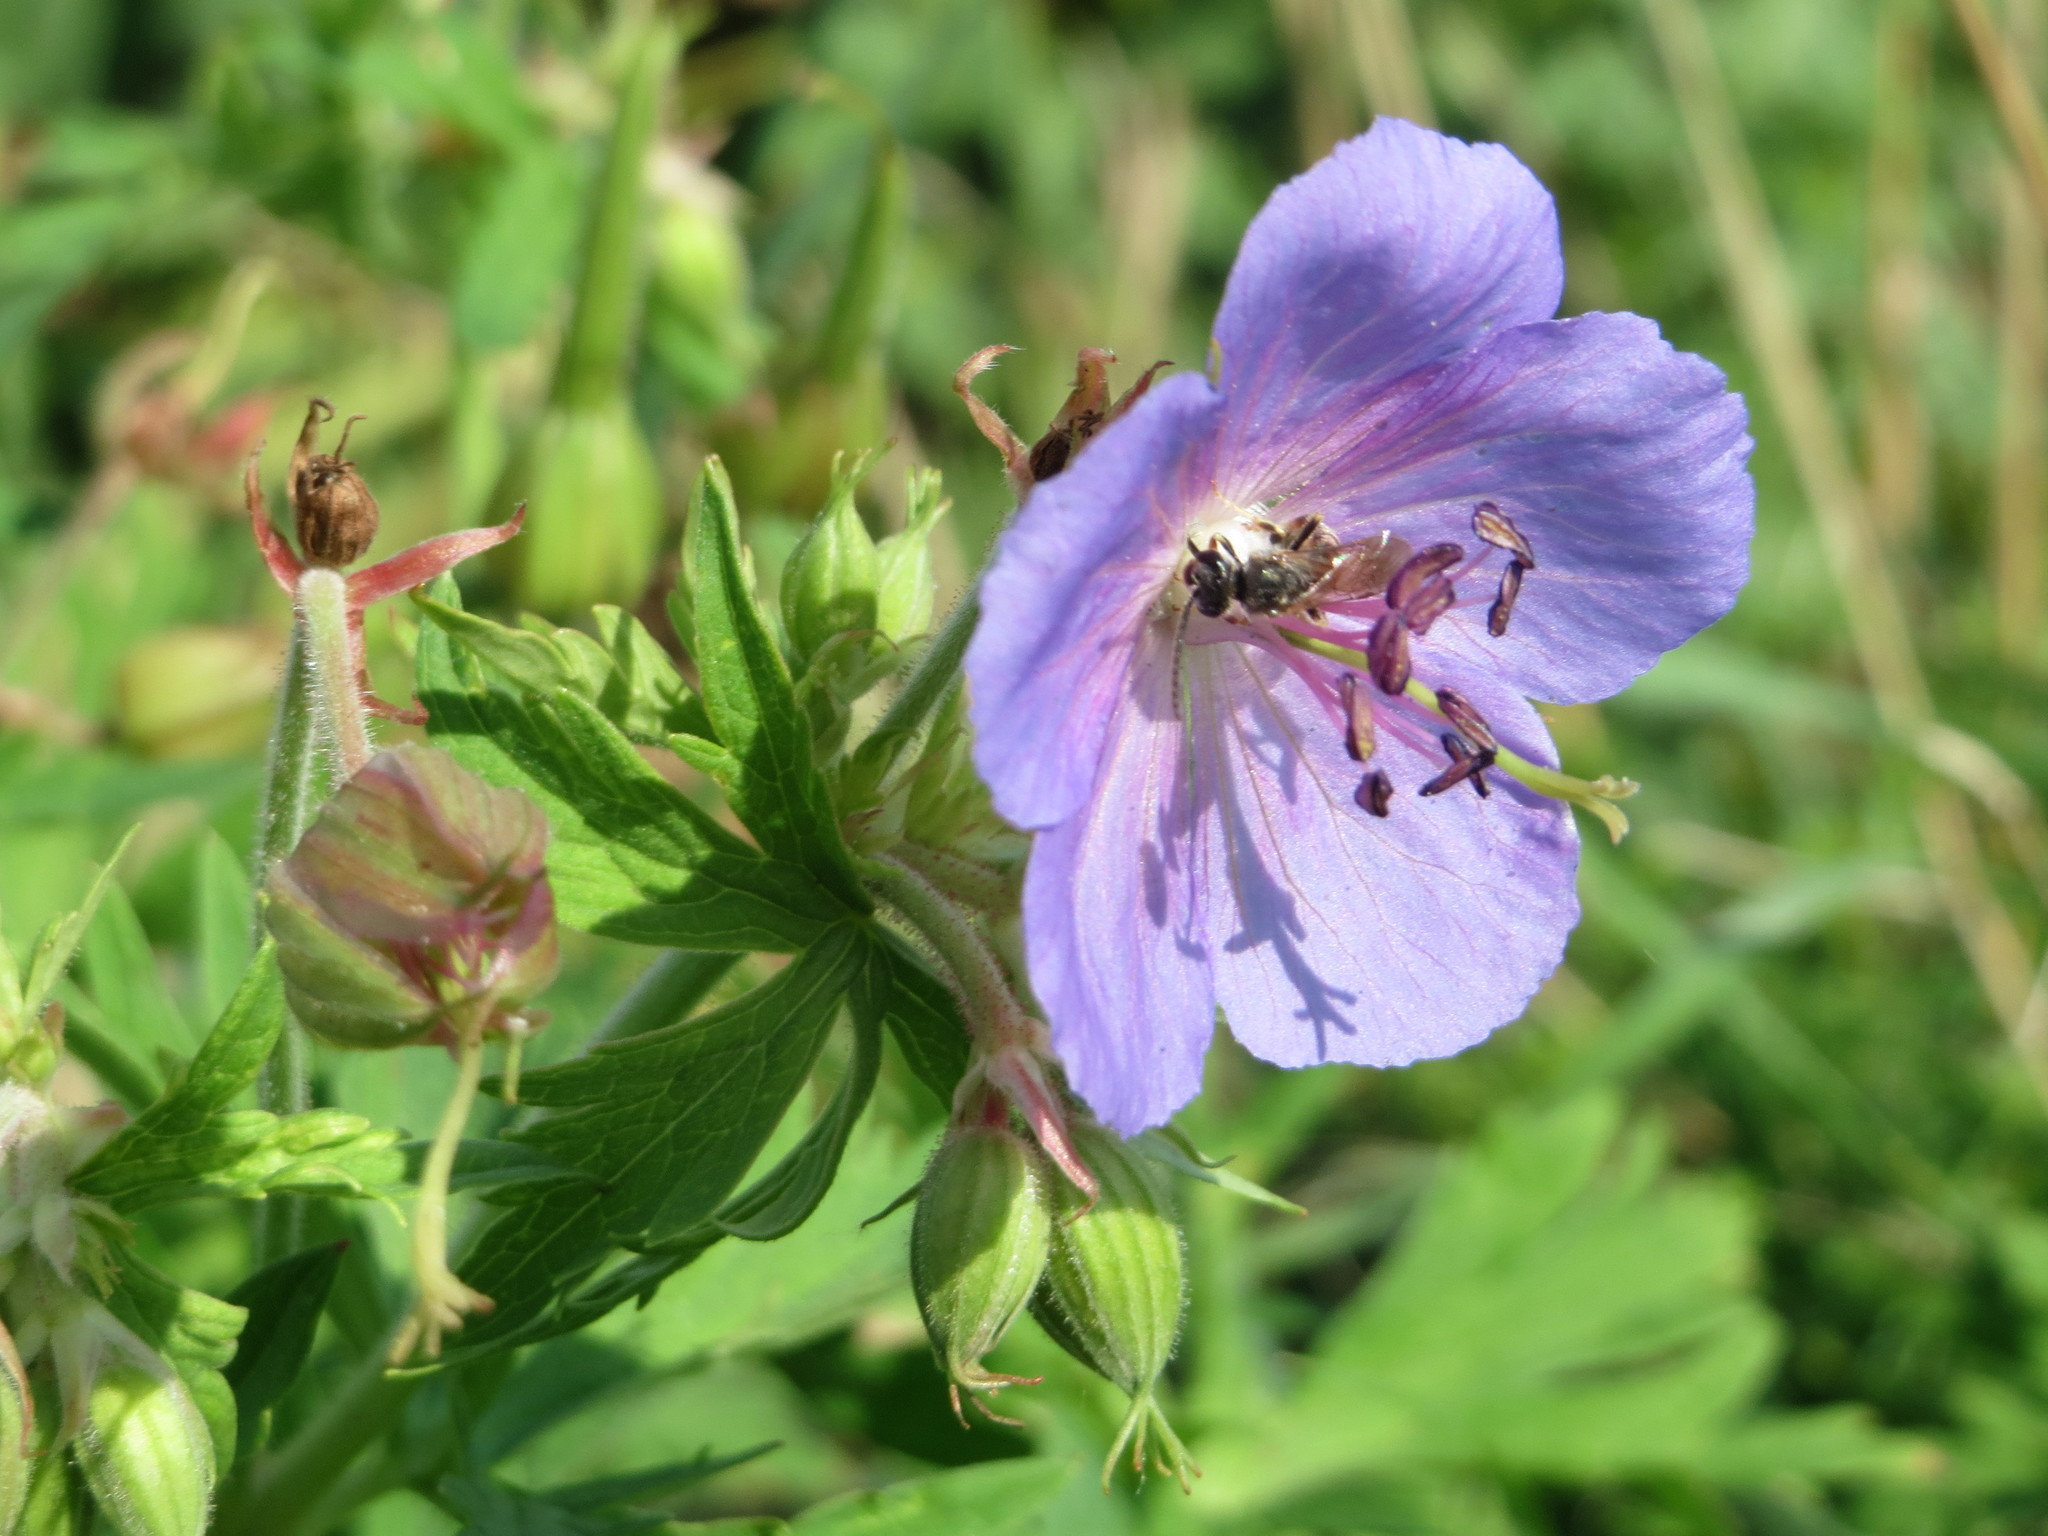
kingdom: Plantae
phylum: Tracheophyta
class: Magnoliopsida
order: Geraniales
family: Geraniaceae
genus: Geranium
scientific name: Geranium pratense
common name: Meadow crane's-bill
